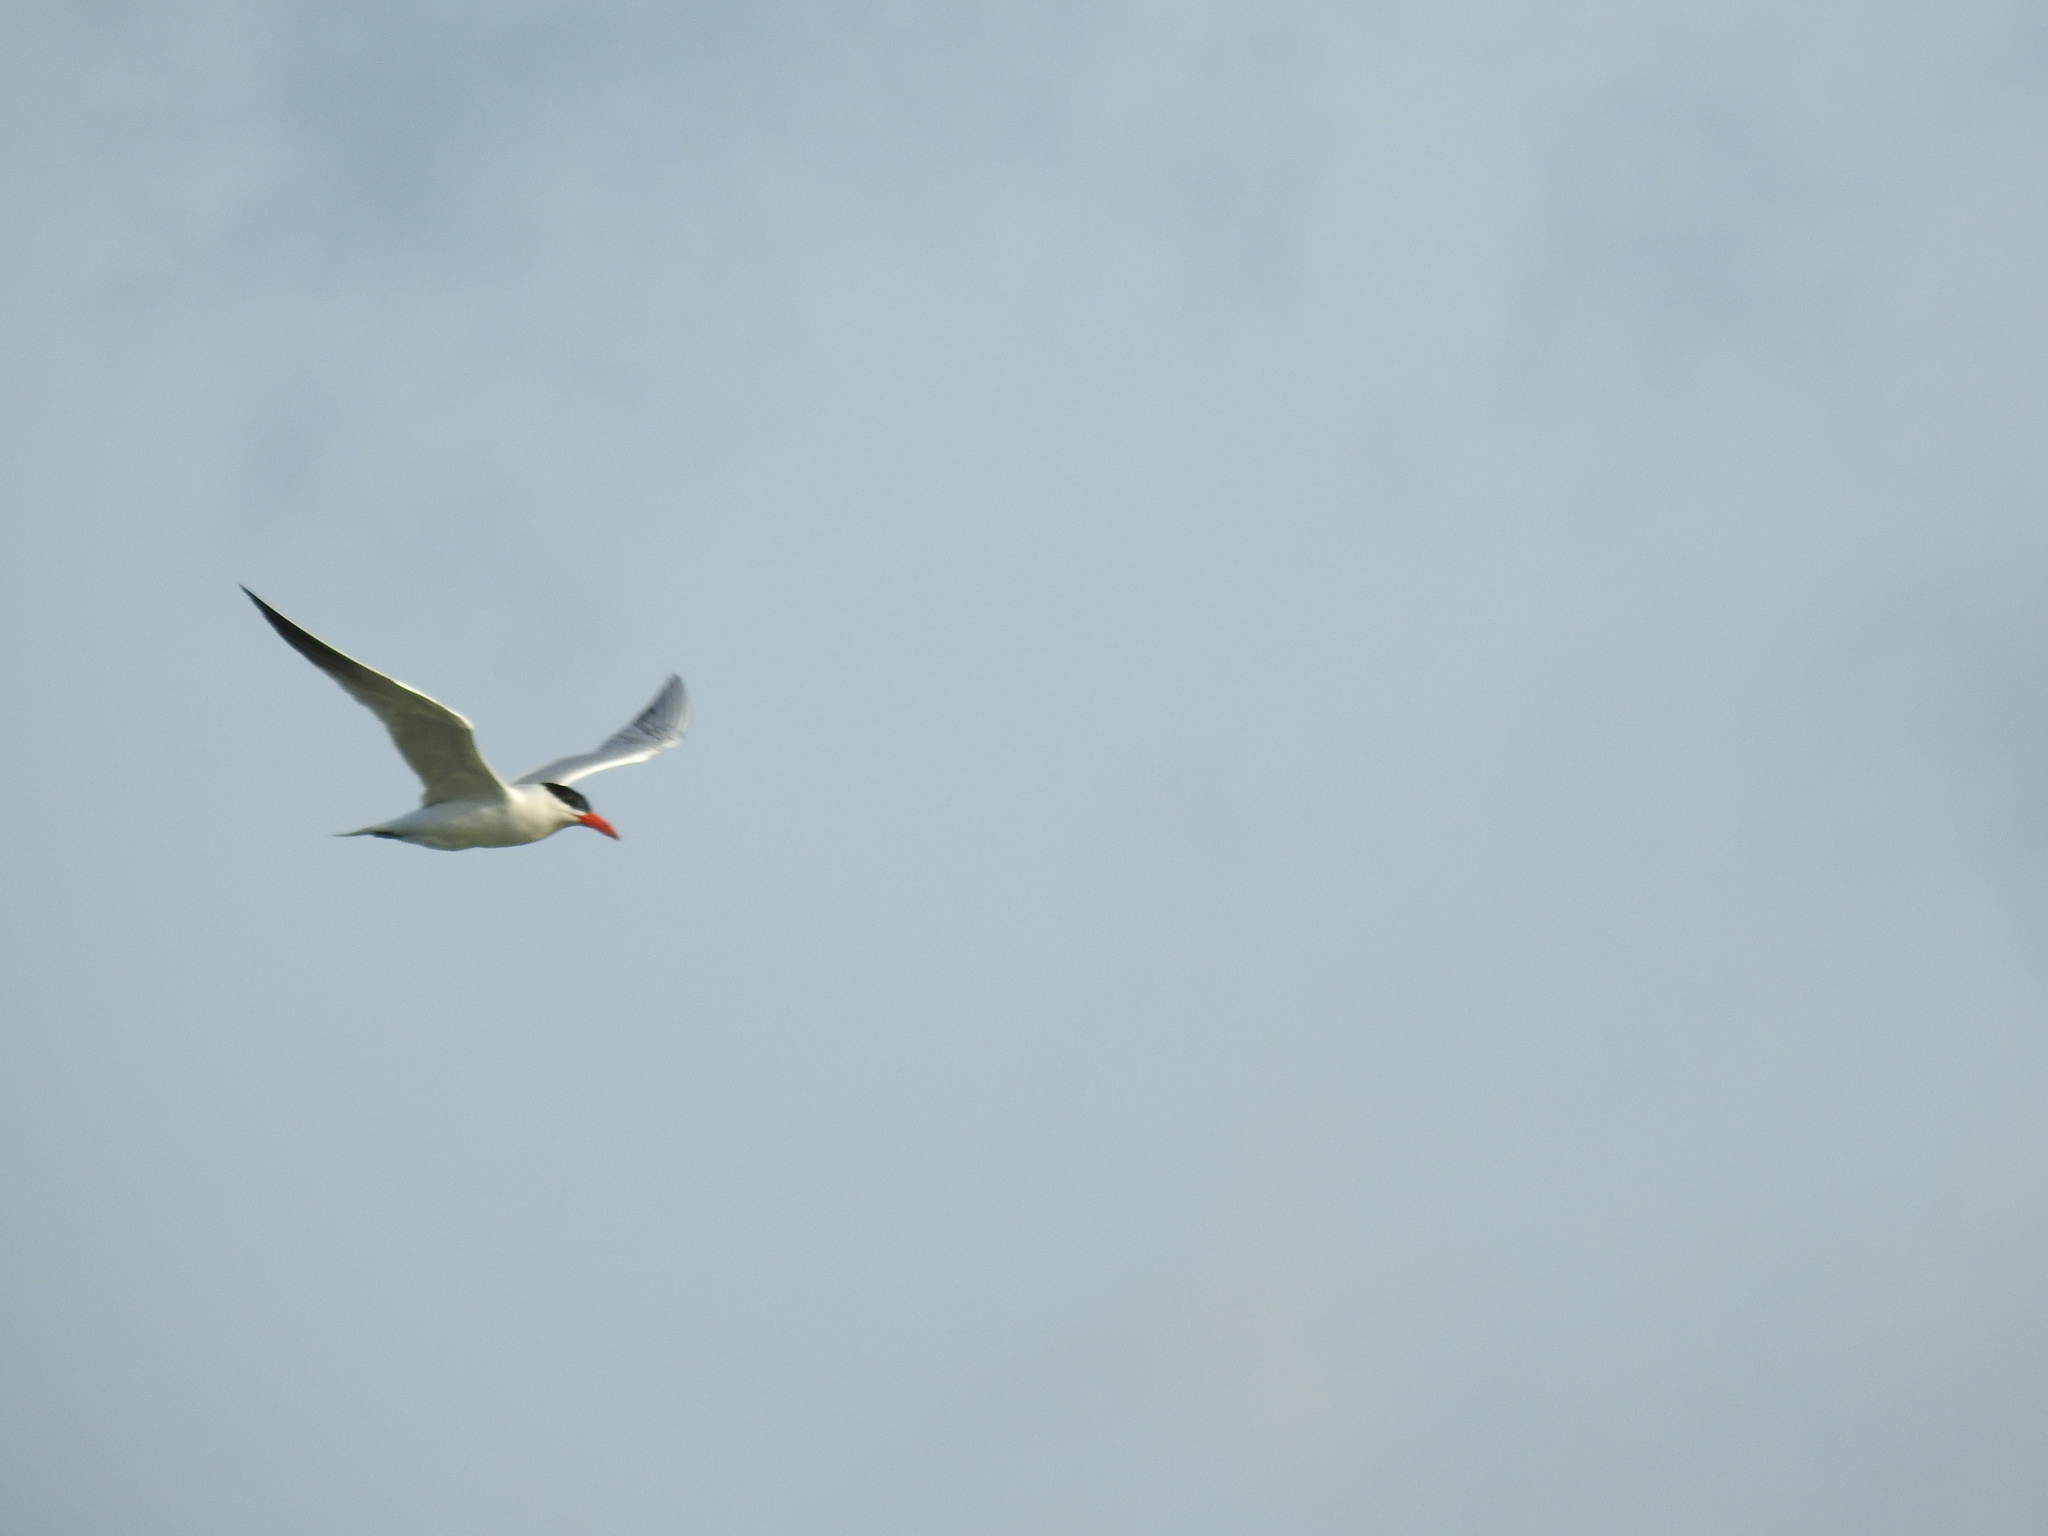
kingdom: Animalia
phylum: Chordata
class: Aves
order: Charadriiformes
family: Laridae
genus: Hydroprogne
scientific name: Hydroprogne caspia
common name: Caspian tern
